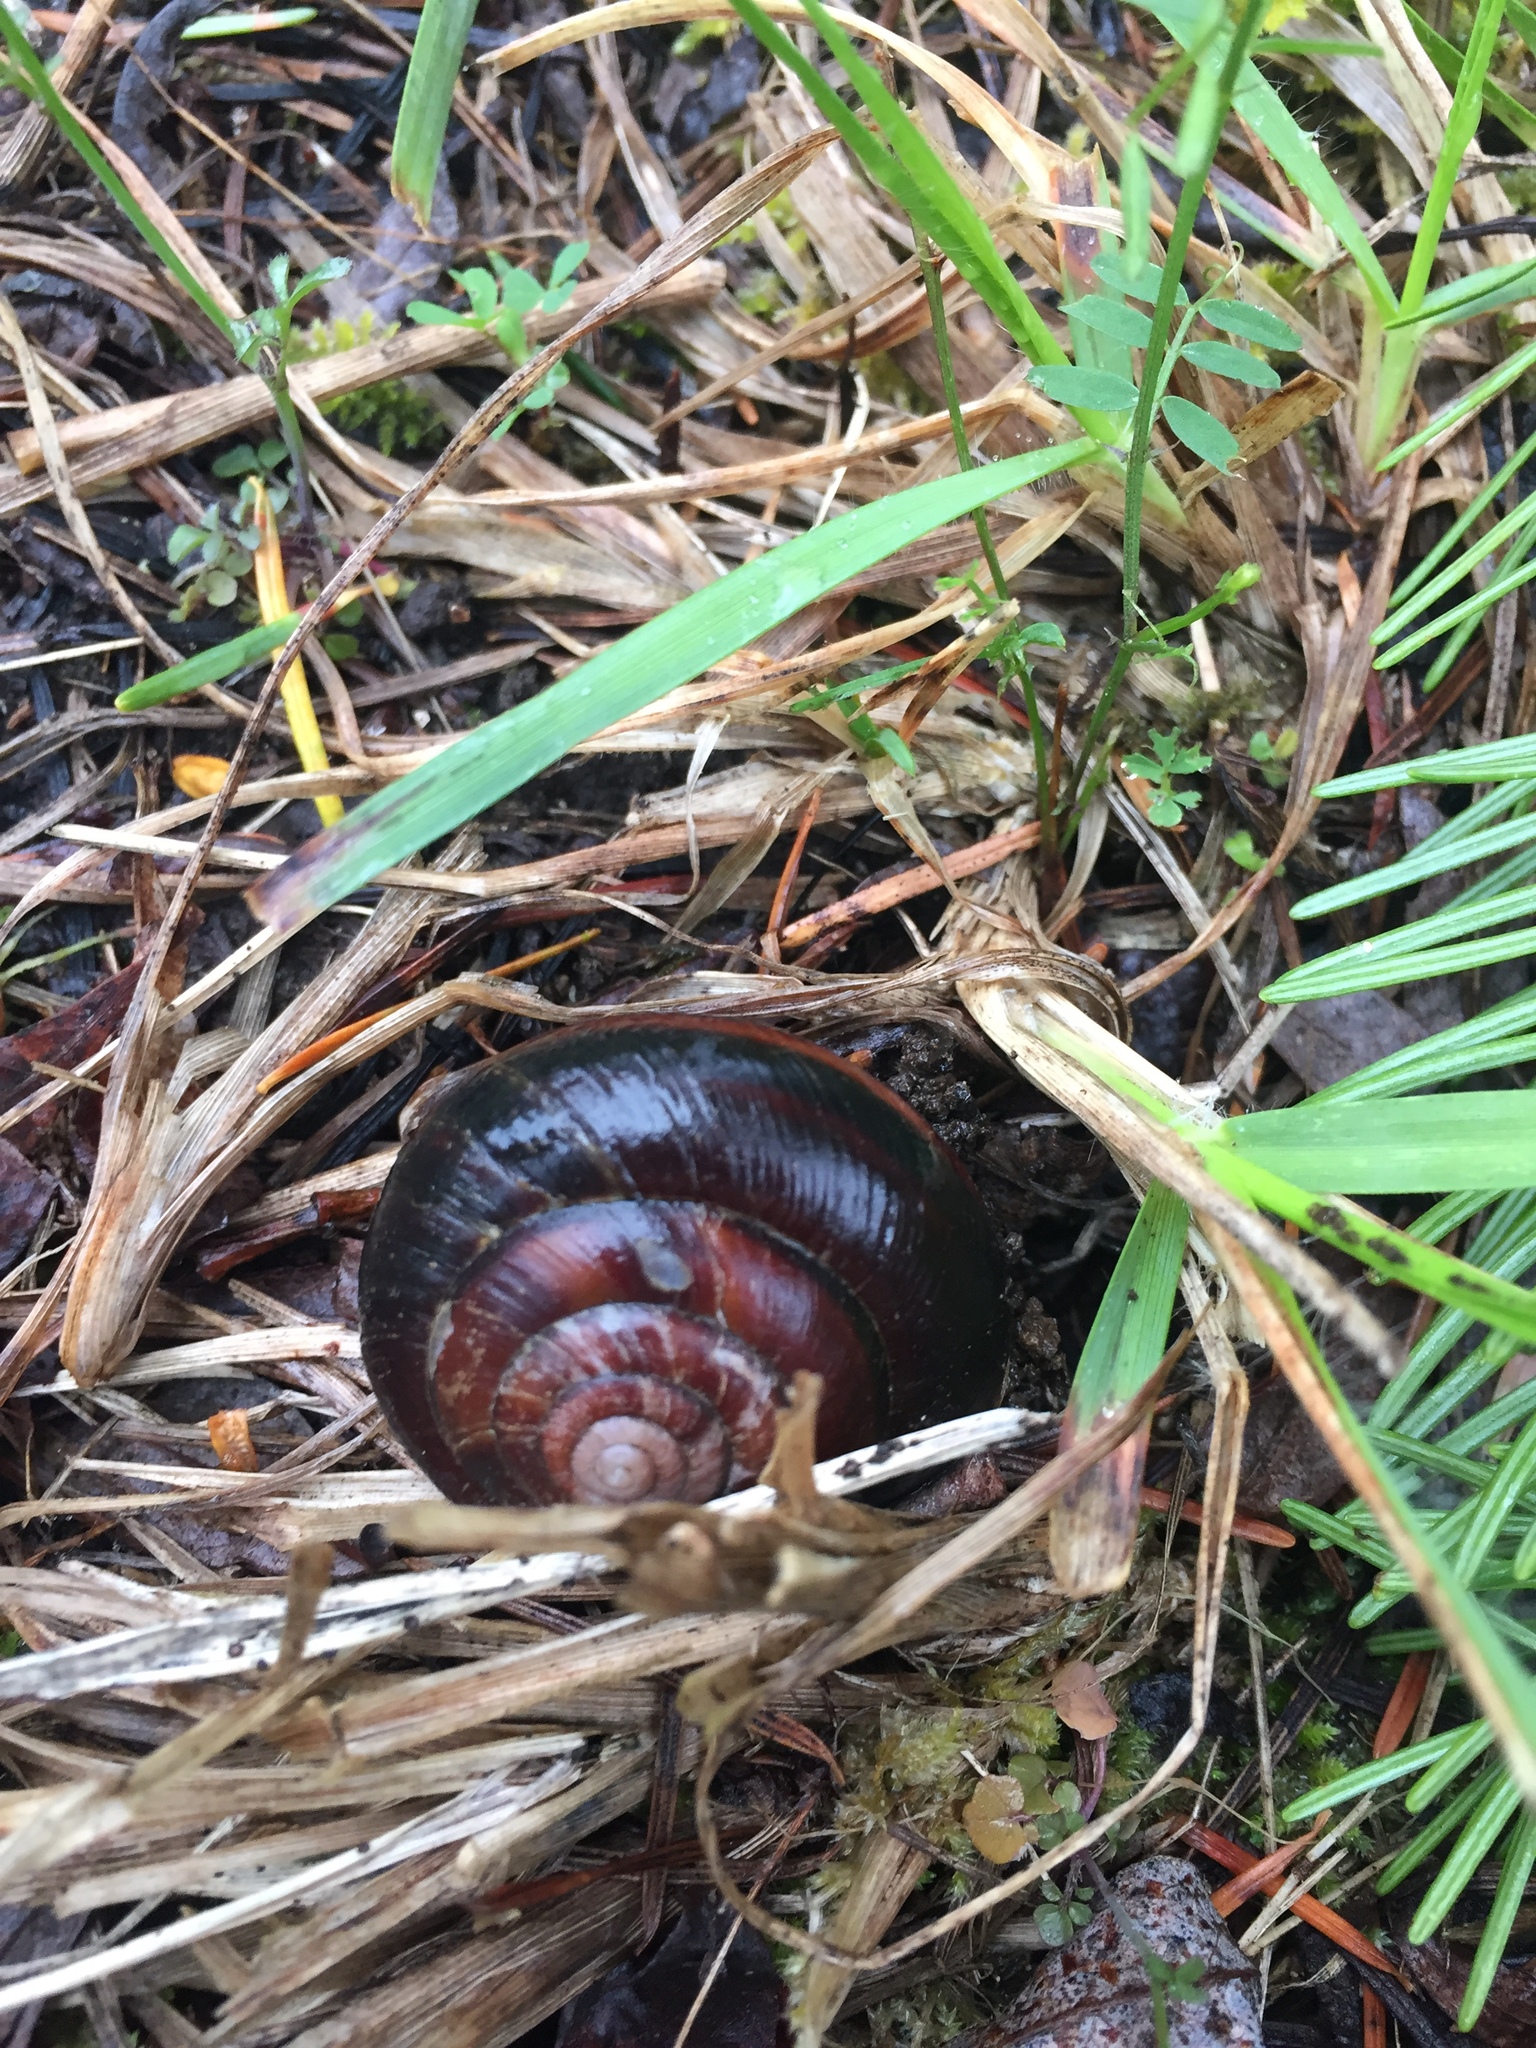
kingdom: Animalia
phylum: Mollusca
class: Gastropoda
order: Stylommatophora
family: Xanthonychidae
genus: Monadenia
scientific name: Monadenia fidelis
